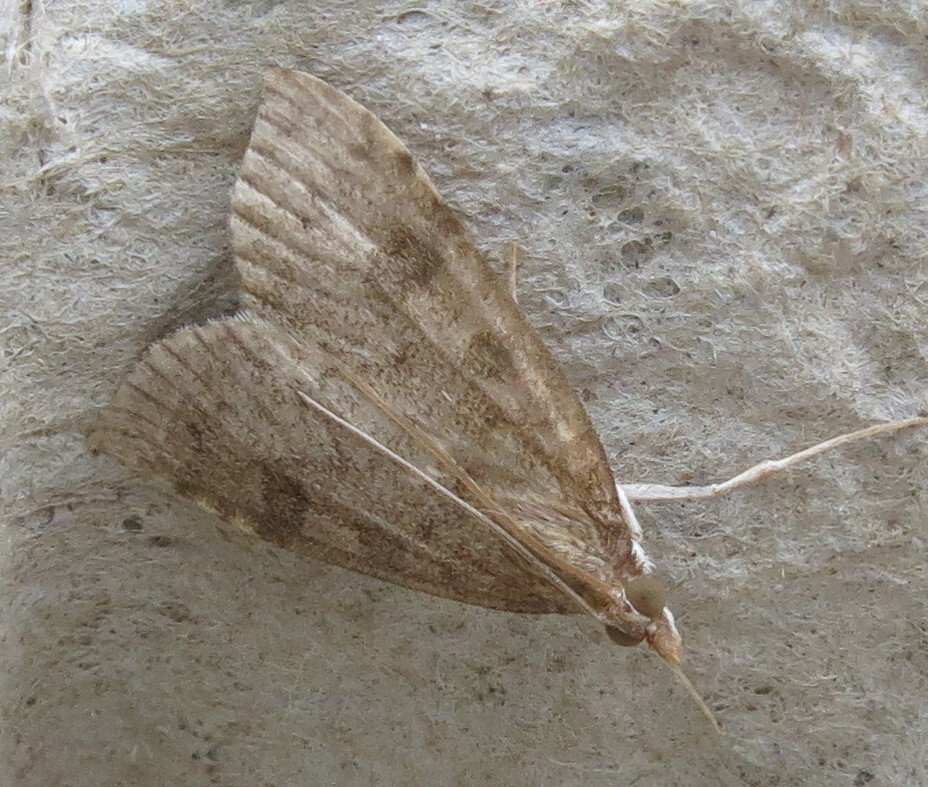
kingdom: Animalia
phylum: Arthropoda
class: Insecta
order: Lepidoptera
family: Crambidae
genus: Udea
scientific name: Udea prunalis
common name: Dusky pearl
